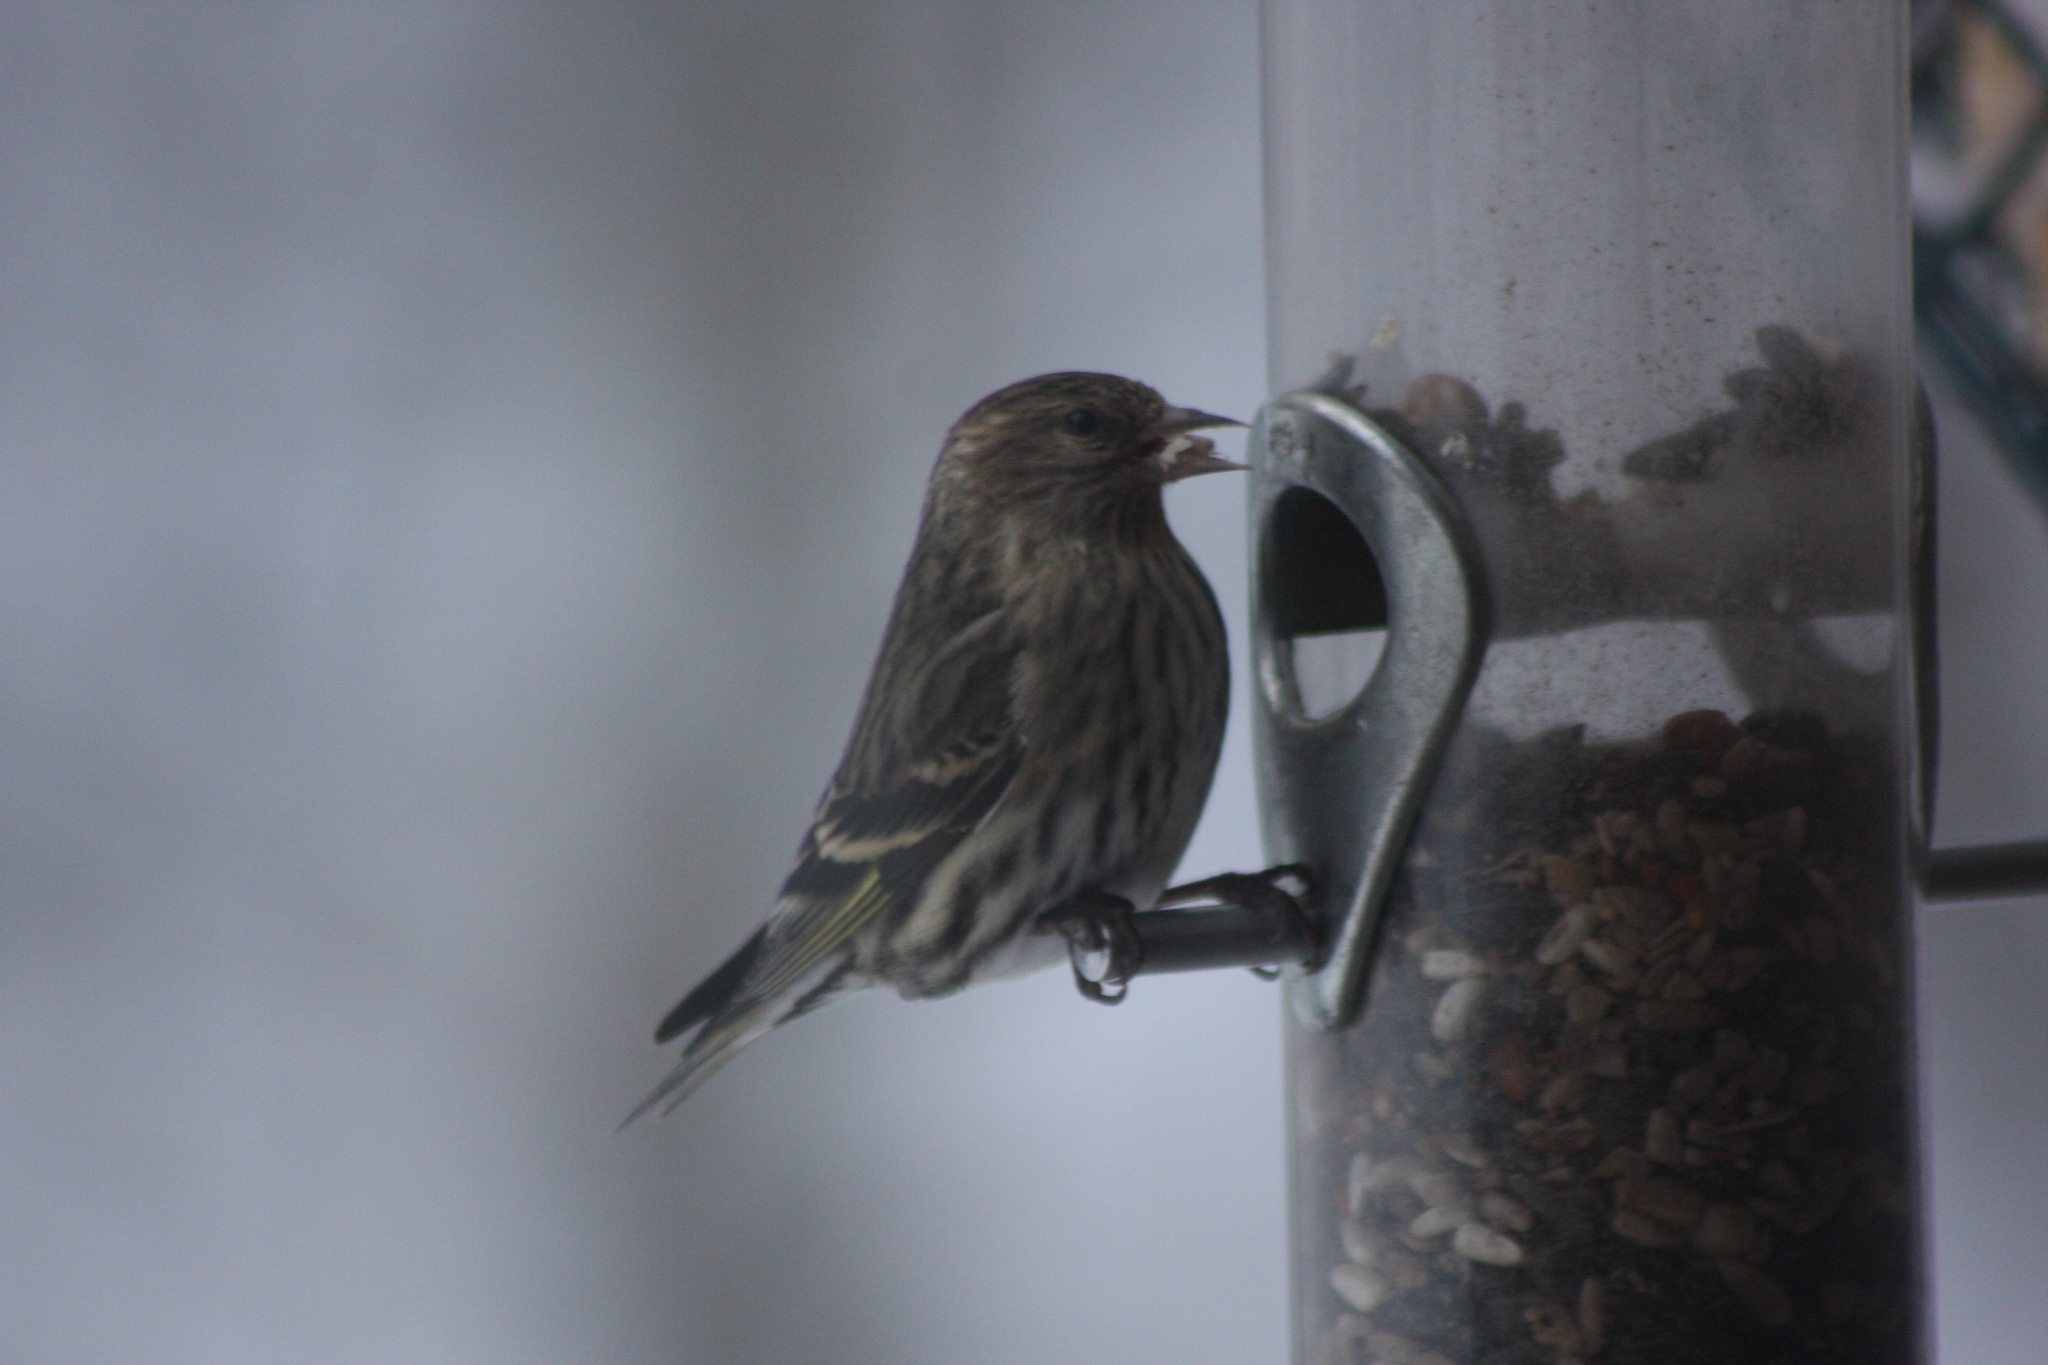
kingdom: Animalia
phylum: Chordata
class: Aves
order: Passeriformes
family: Fringillidae
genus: Spinus
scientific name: Spinus pinus
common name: Pine siskin
